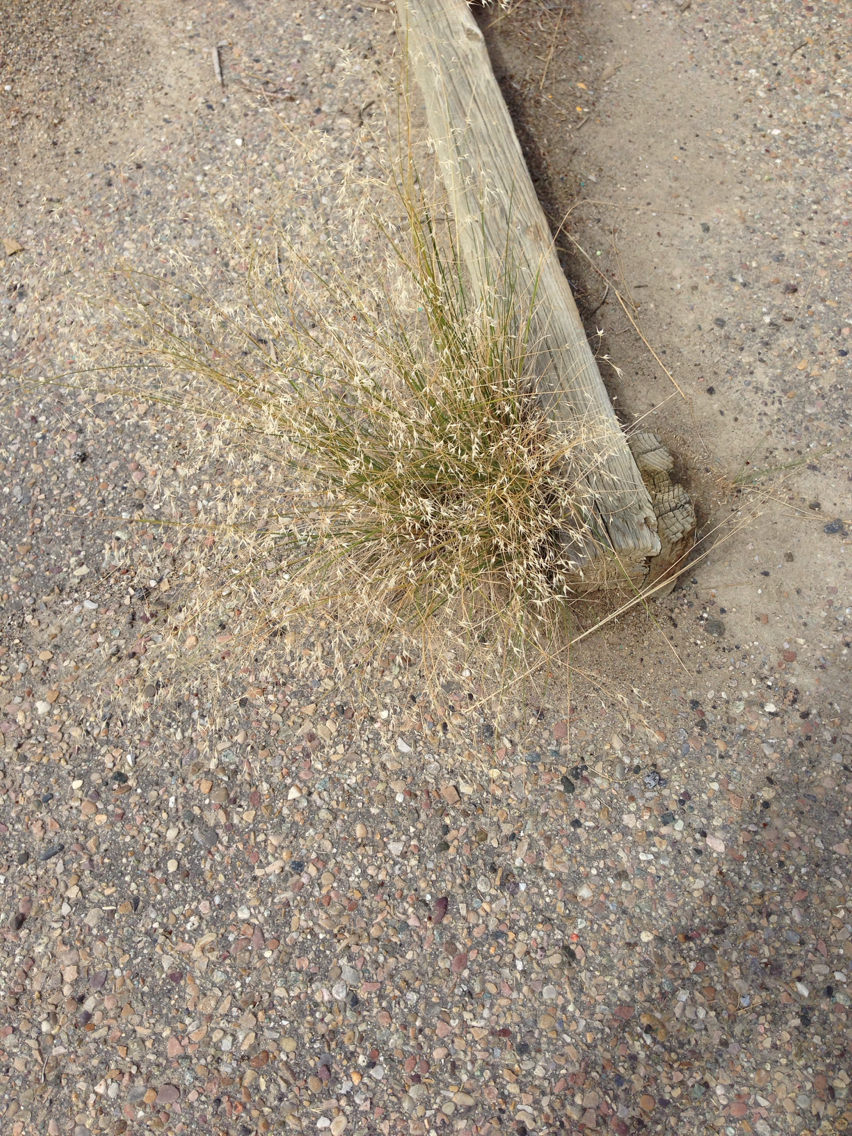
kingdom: Plantae
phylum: Tracheophyta
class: Liliopsida
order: Poales
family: Poaceae
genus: Eriocoma
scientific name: Eriocoma hymenoides
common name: Indian mountain ricegrass
